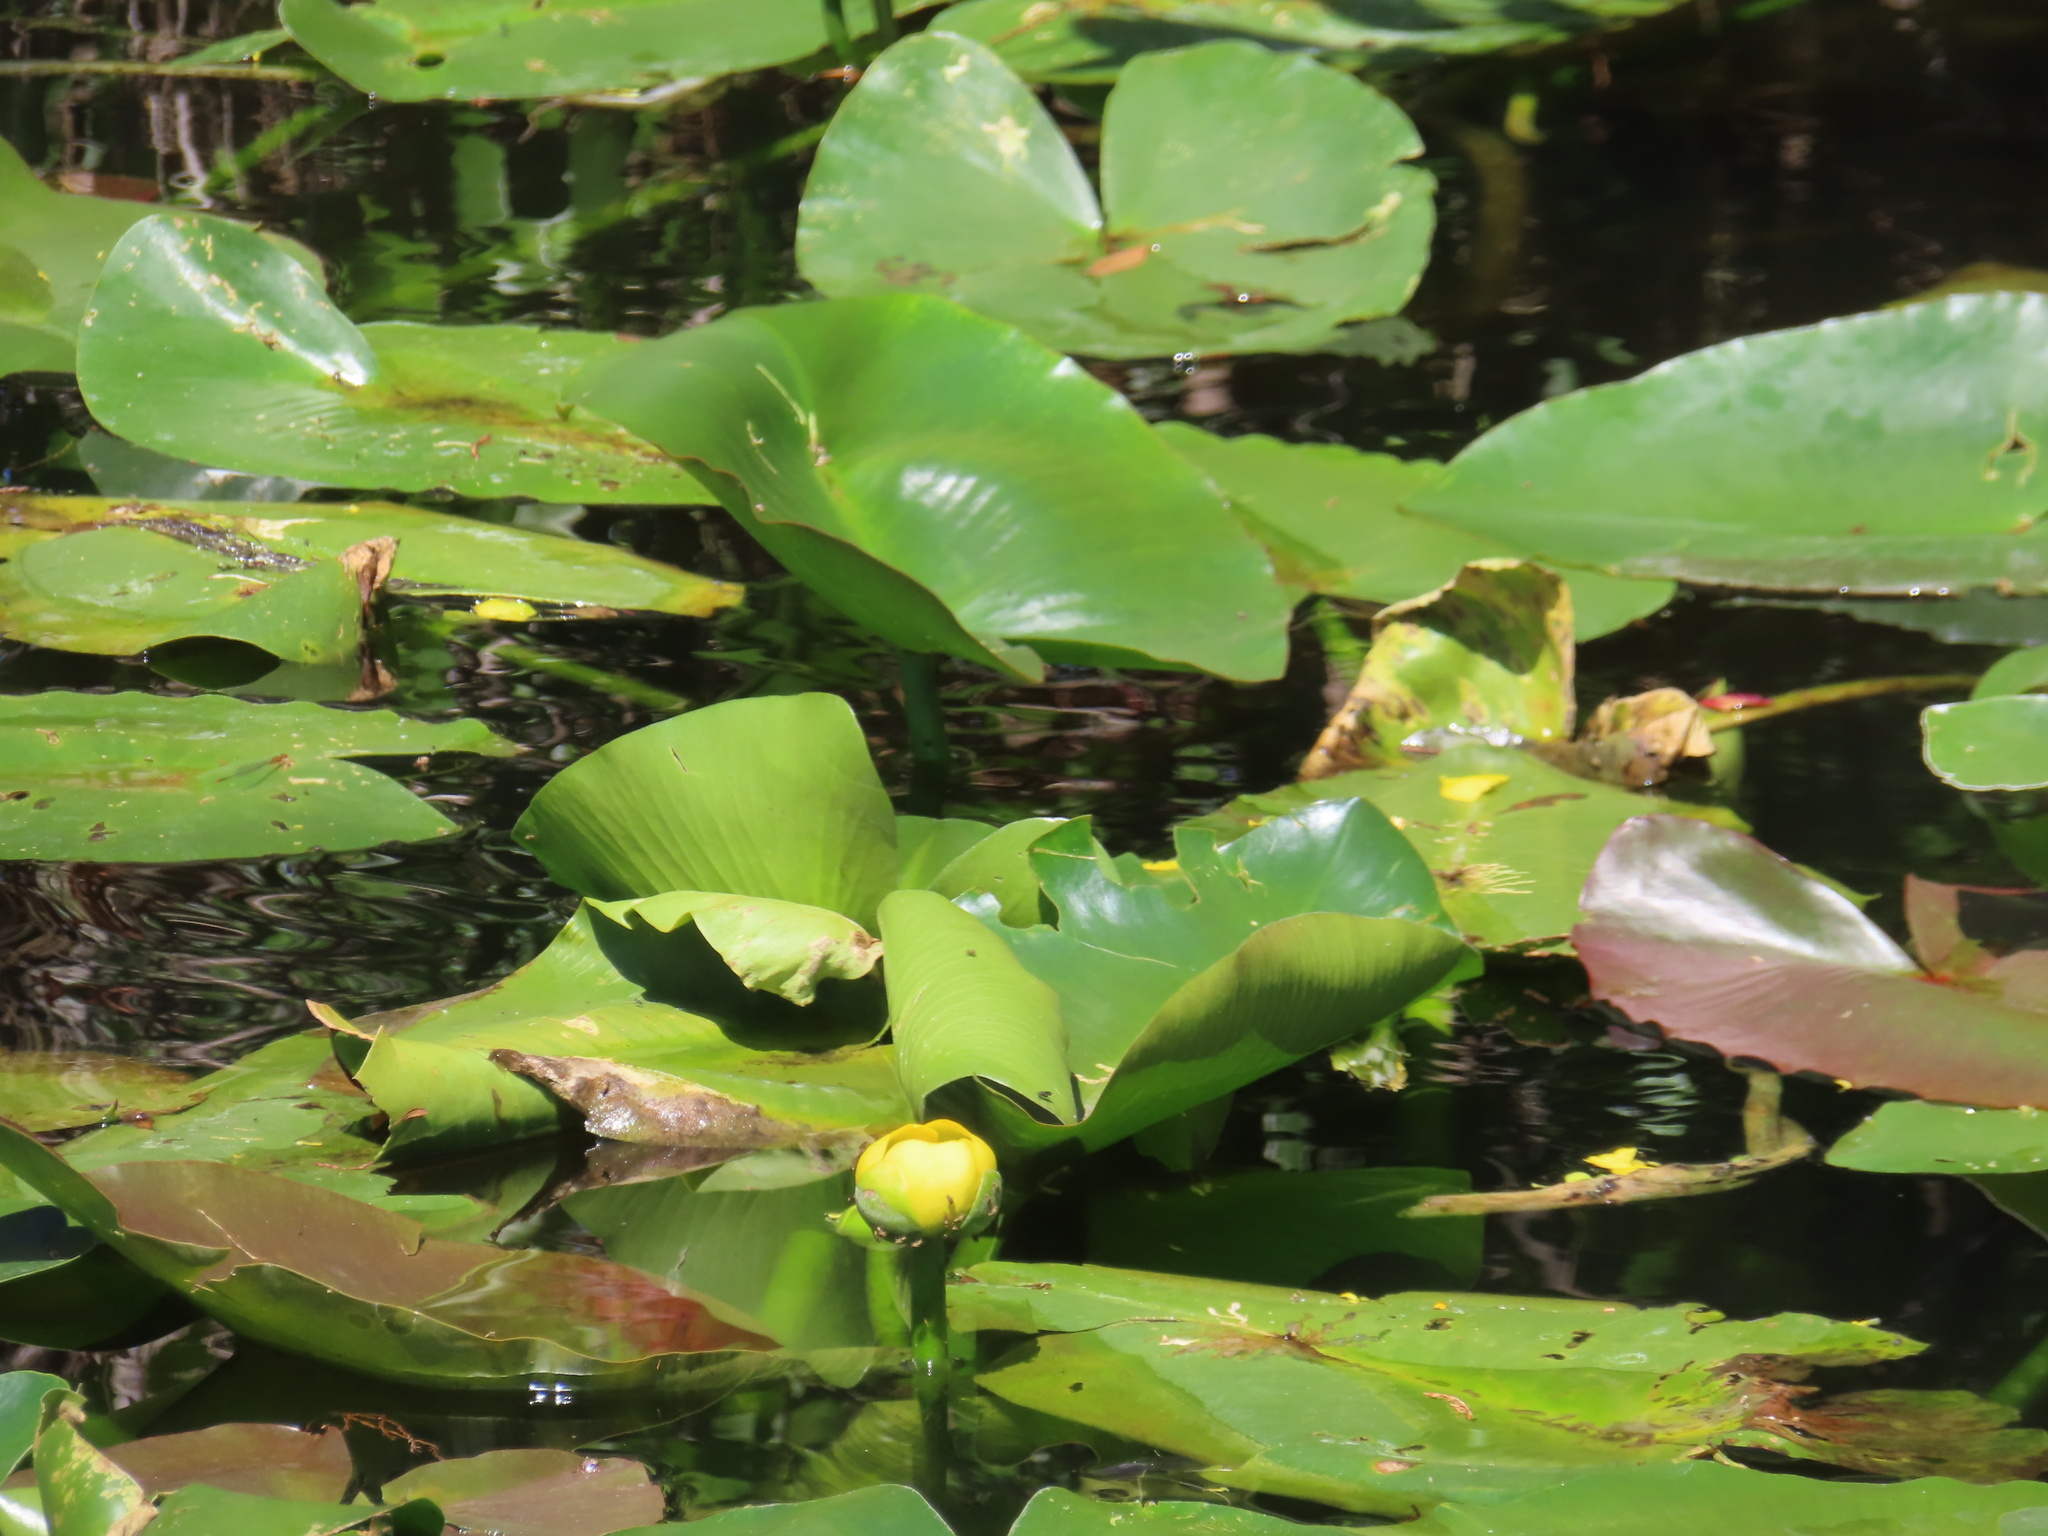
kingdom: Plantae
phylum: Tracheophyta
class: Magnoliopsida
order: Nymphaeales
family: Nymphaeaceae
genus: Nuphar
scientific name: Nuphar advena
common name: Spatter-dock
